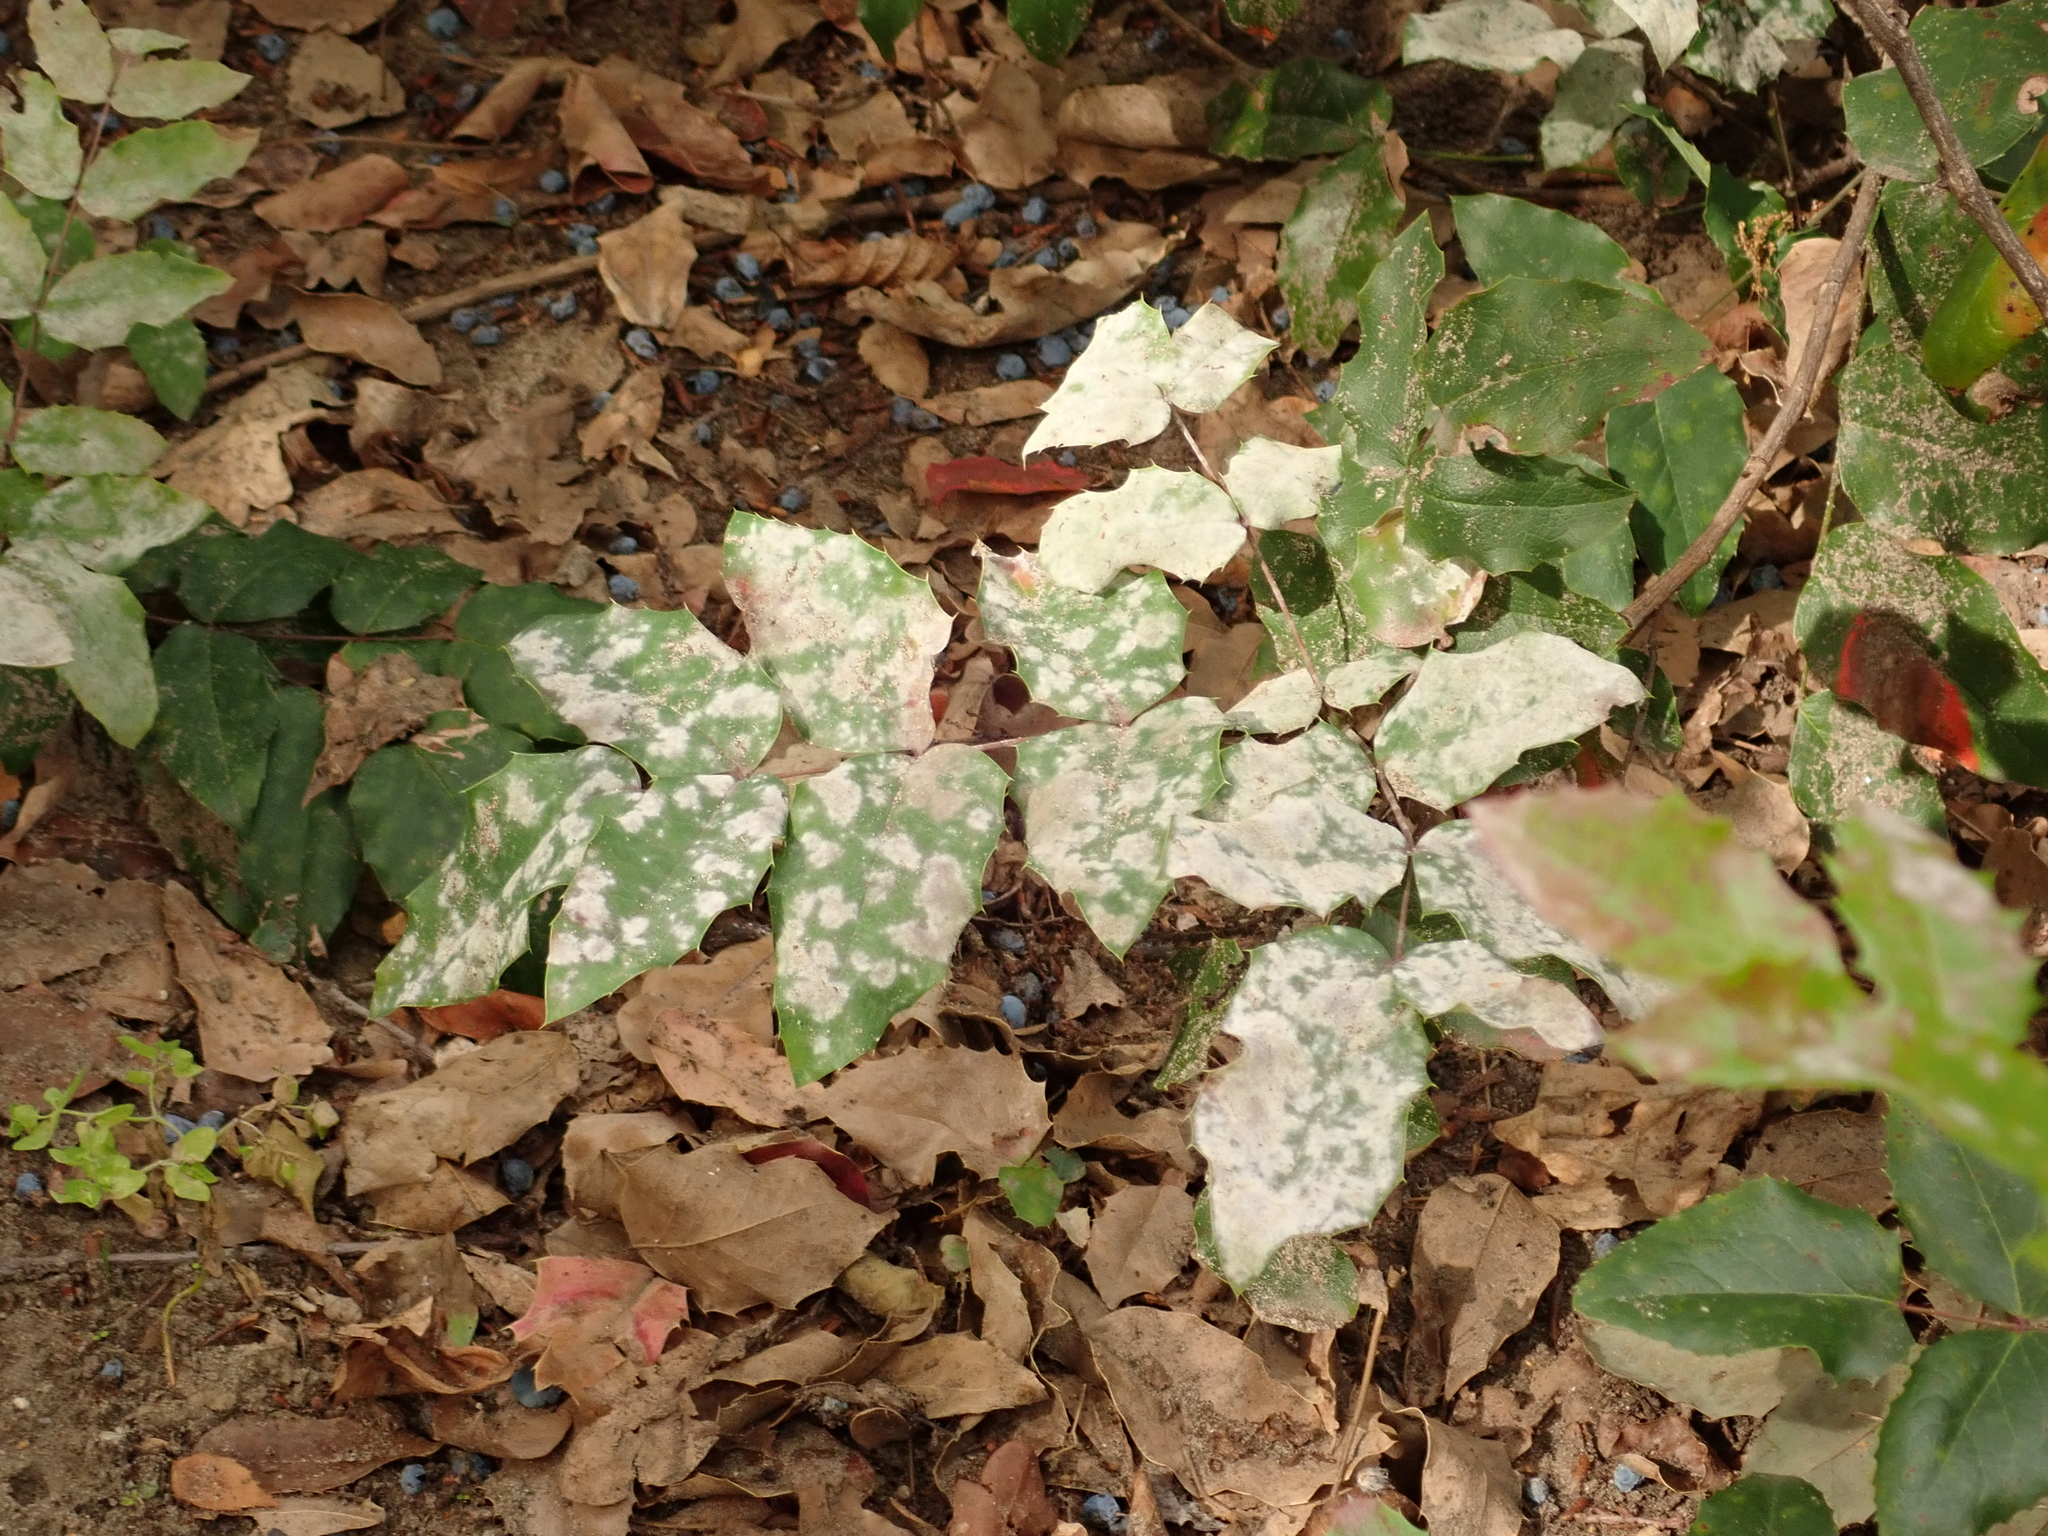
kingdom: Fungi
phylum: Ascomycota
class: Leotiomycetes
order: Helotiales
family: Erysiphaceae
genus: Erysiphe
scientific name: Erysiphe berberidis
